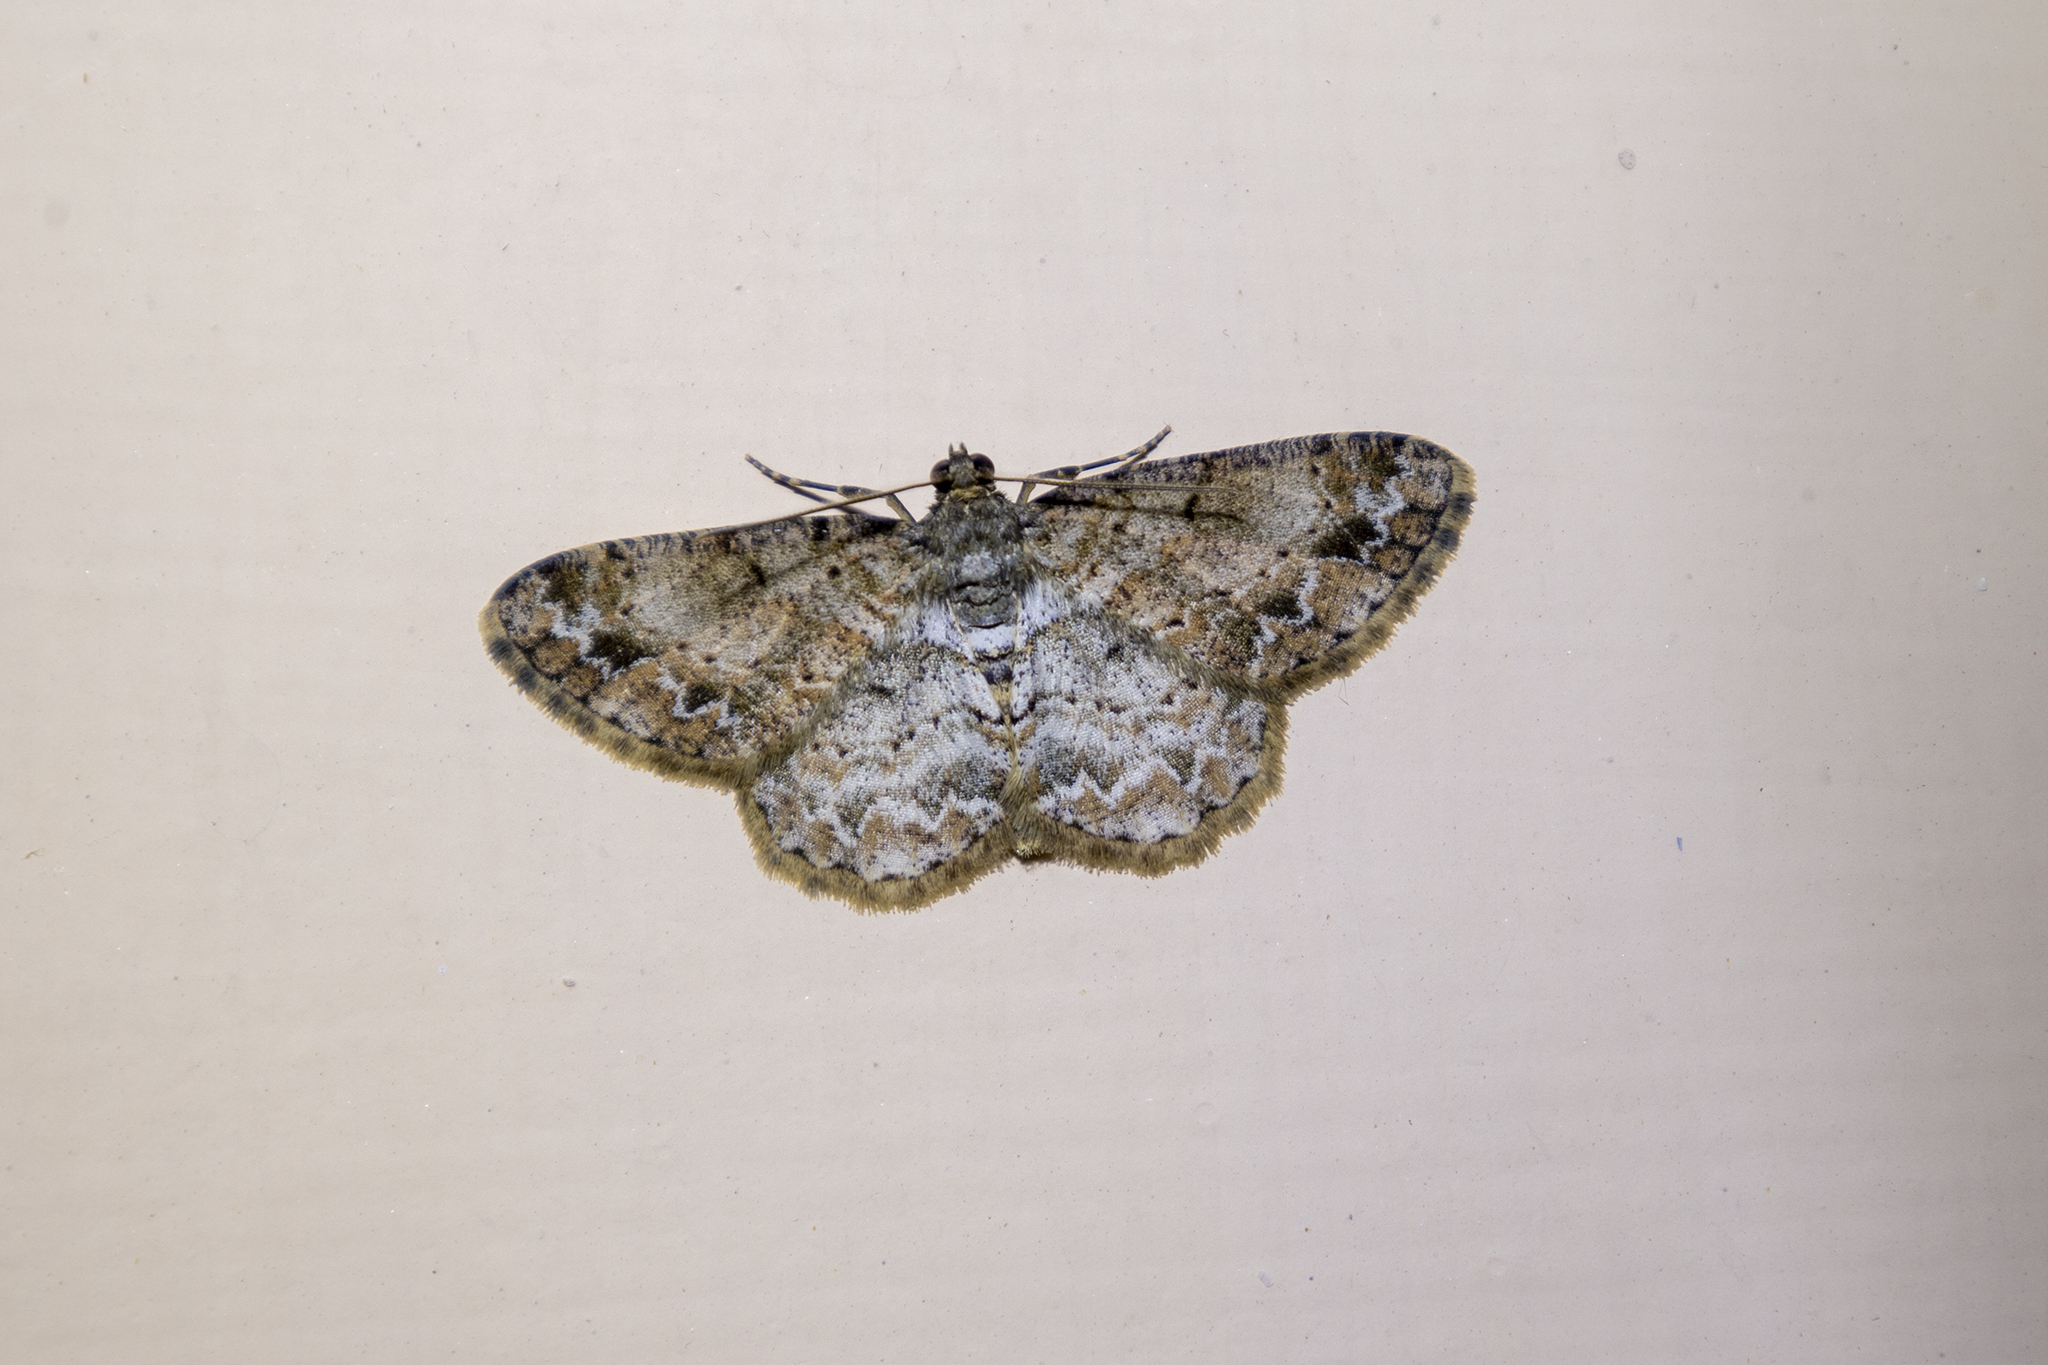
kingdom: Animalia
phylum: Arthropoda
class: Insecta
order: Lepidoptera
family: Geometridae
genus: Psilalcis
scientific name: Psilalcis subochrea
